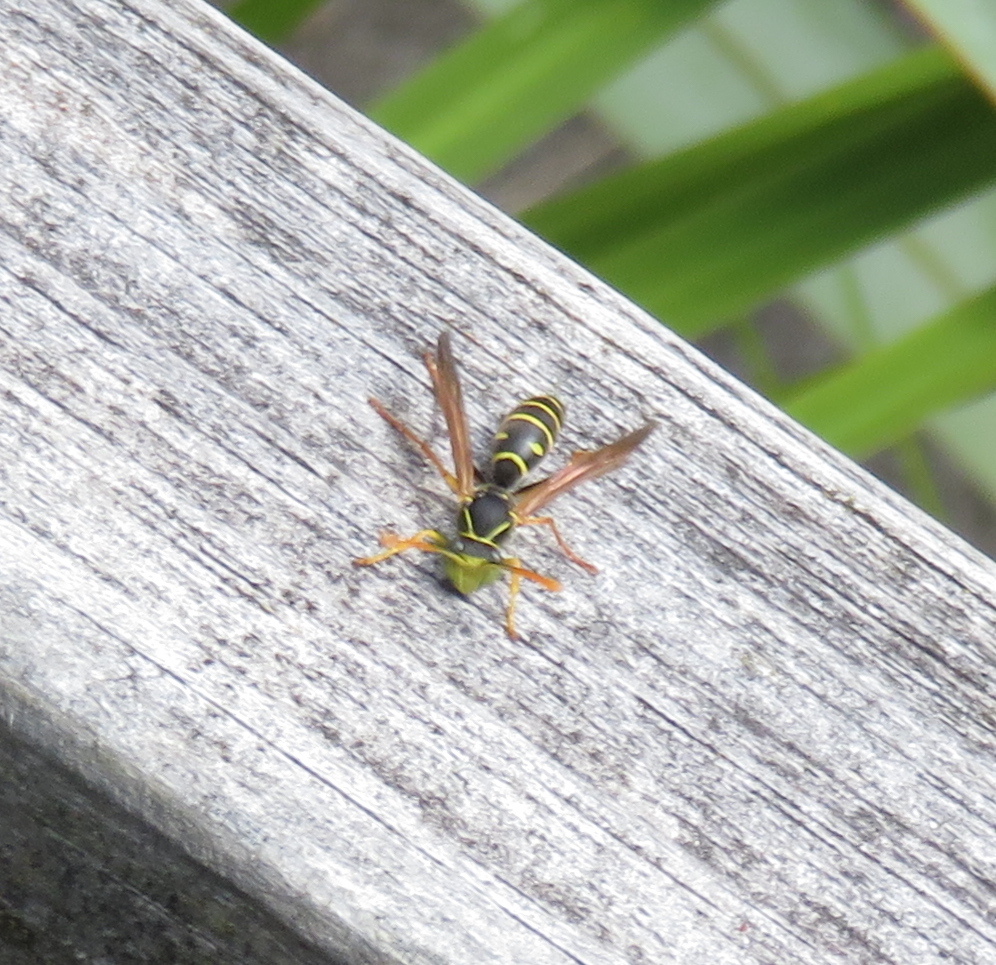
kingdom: Animalia
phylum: Arthropoda
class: Insecta
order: Hymenoptera
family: Eumenidae
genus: Polistes
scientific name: Polistes chinensis
